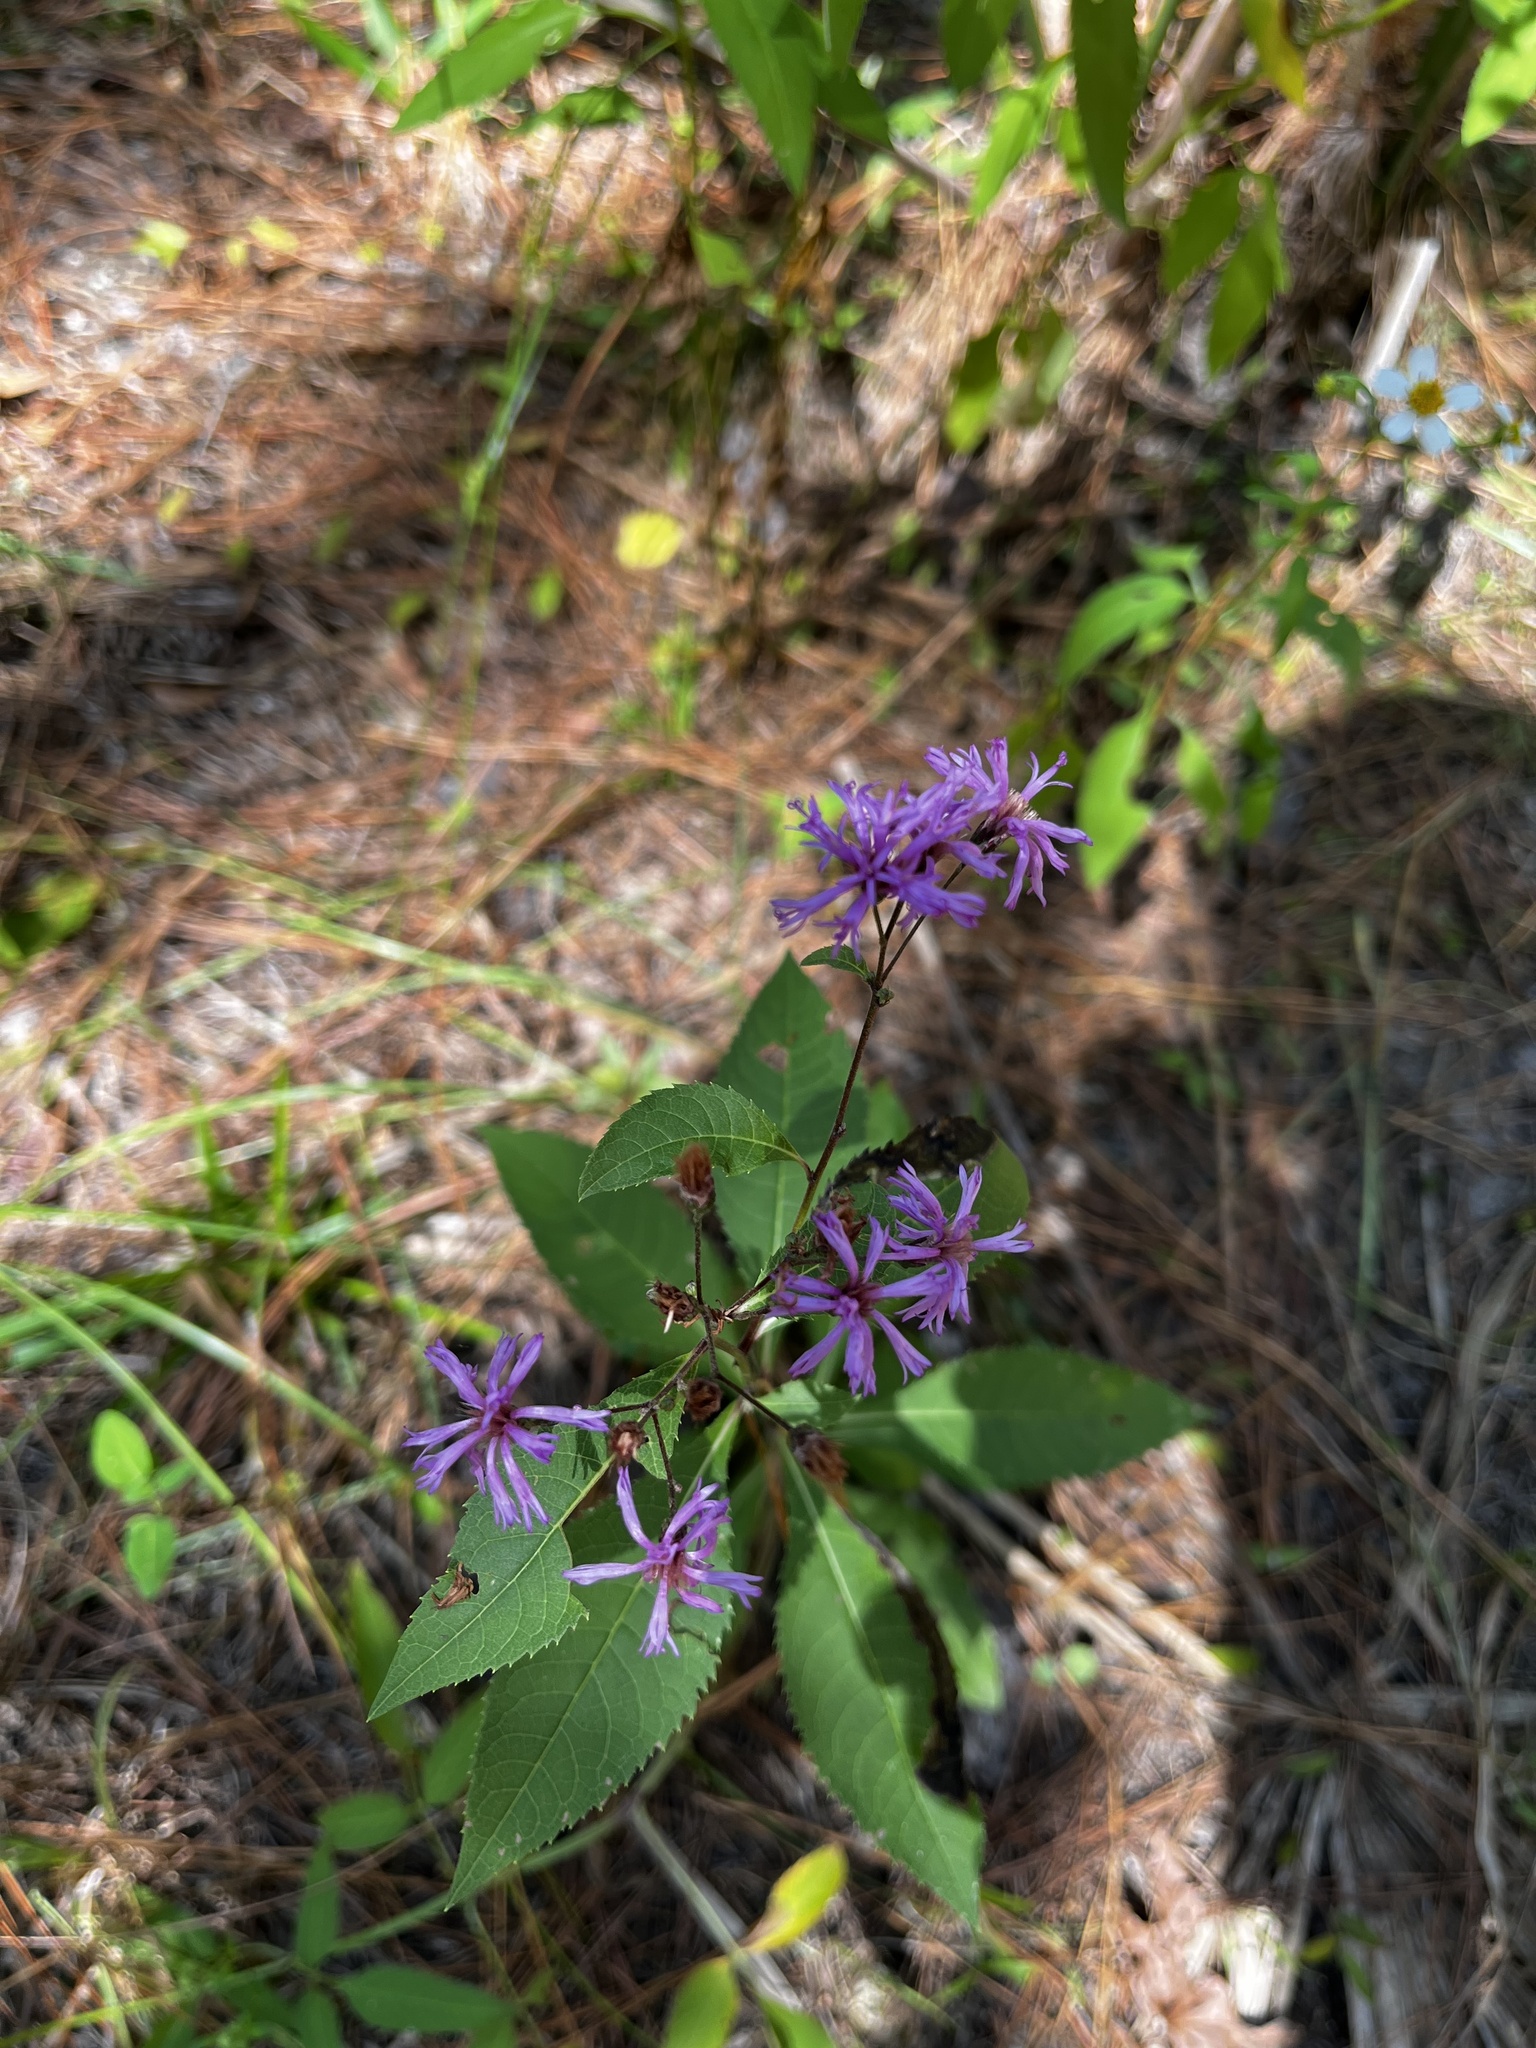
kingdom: Plantae
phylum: Tracheophyta
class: Magnoliopsida
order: Asterales
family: Asteraceae
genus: Vernonia
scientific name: Vernonia gigantea
